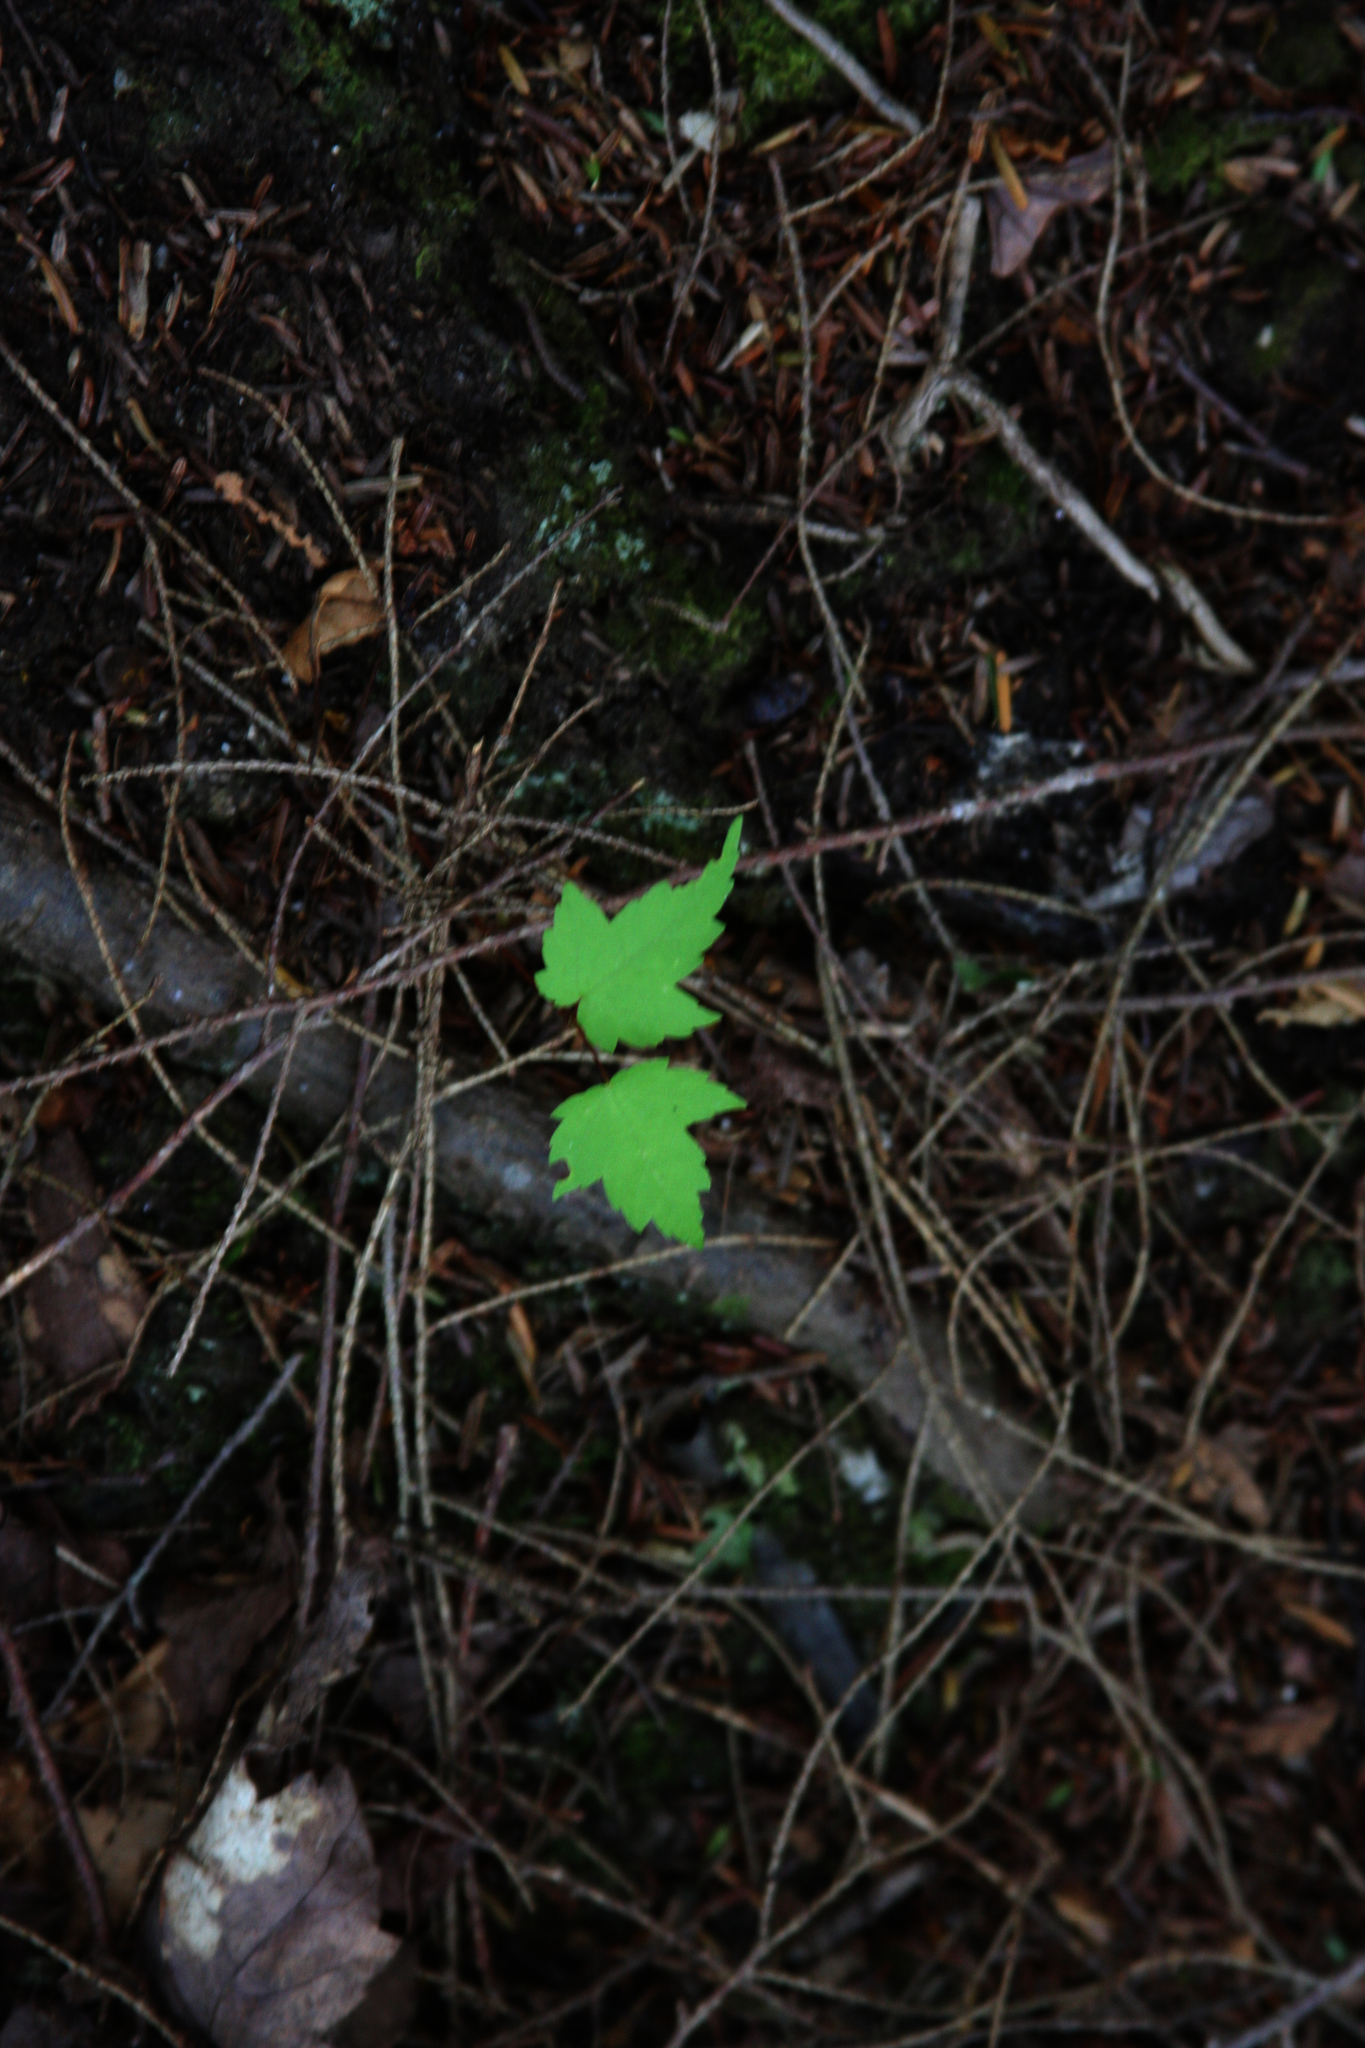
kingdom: Plantae
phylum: Tracheophyta
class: Magnoliopsida
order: Sapindales
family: Sapindaceae
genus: Acer
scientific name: Acer rubrum
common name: Red maple
